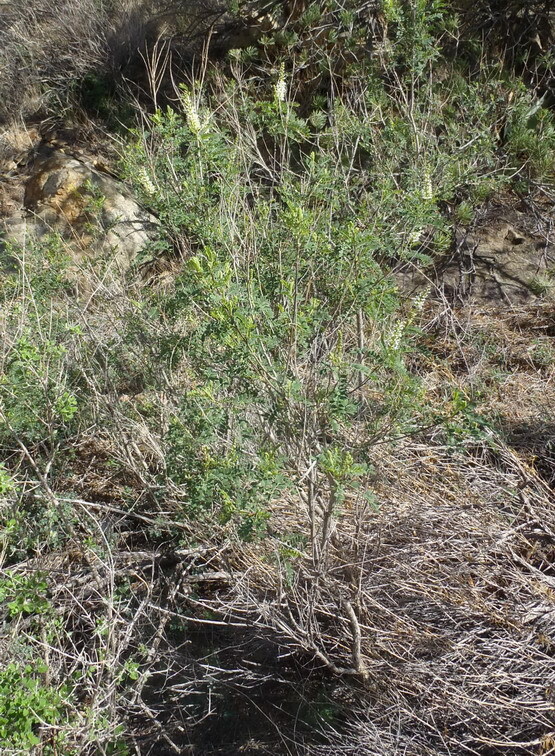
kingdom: Plantae
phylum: Tracheophyta
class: Magnoliopsida
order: Fabales
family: Fabaceae
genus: Eysenhardtia
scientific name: Eysenhardtia texana
